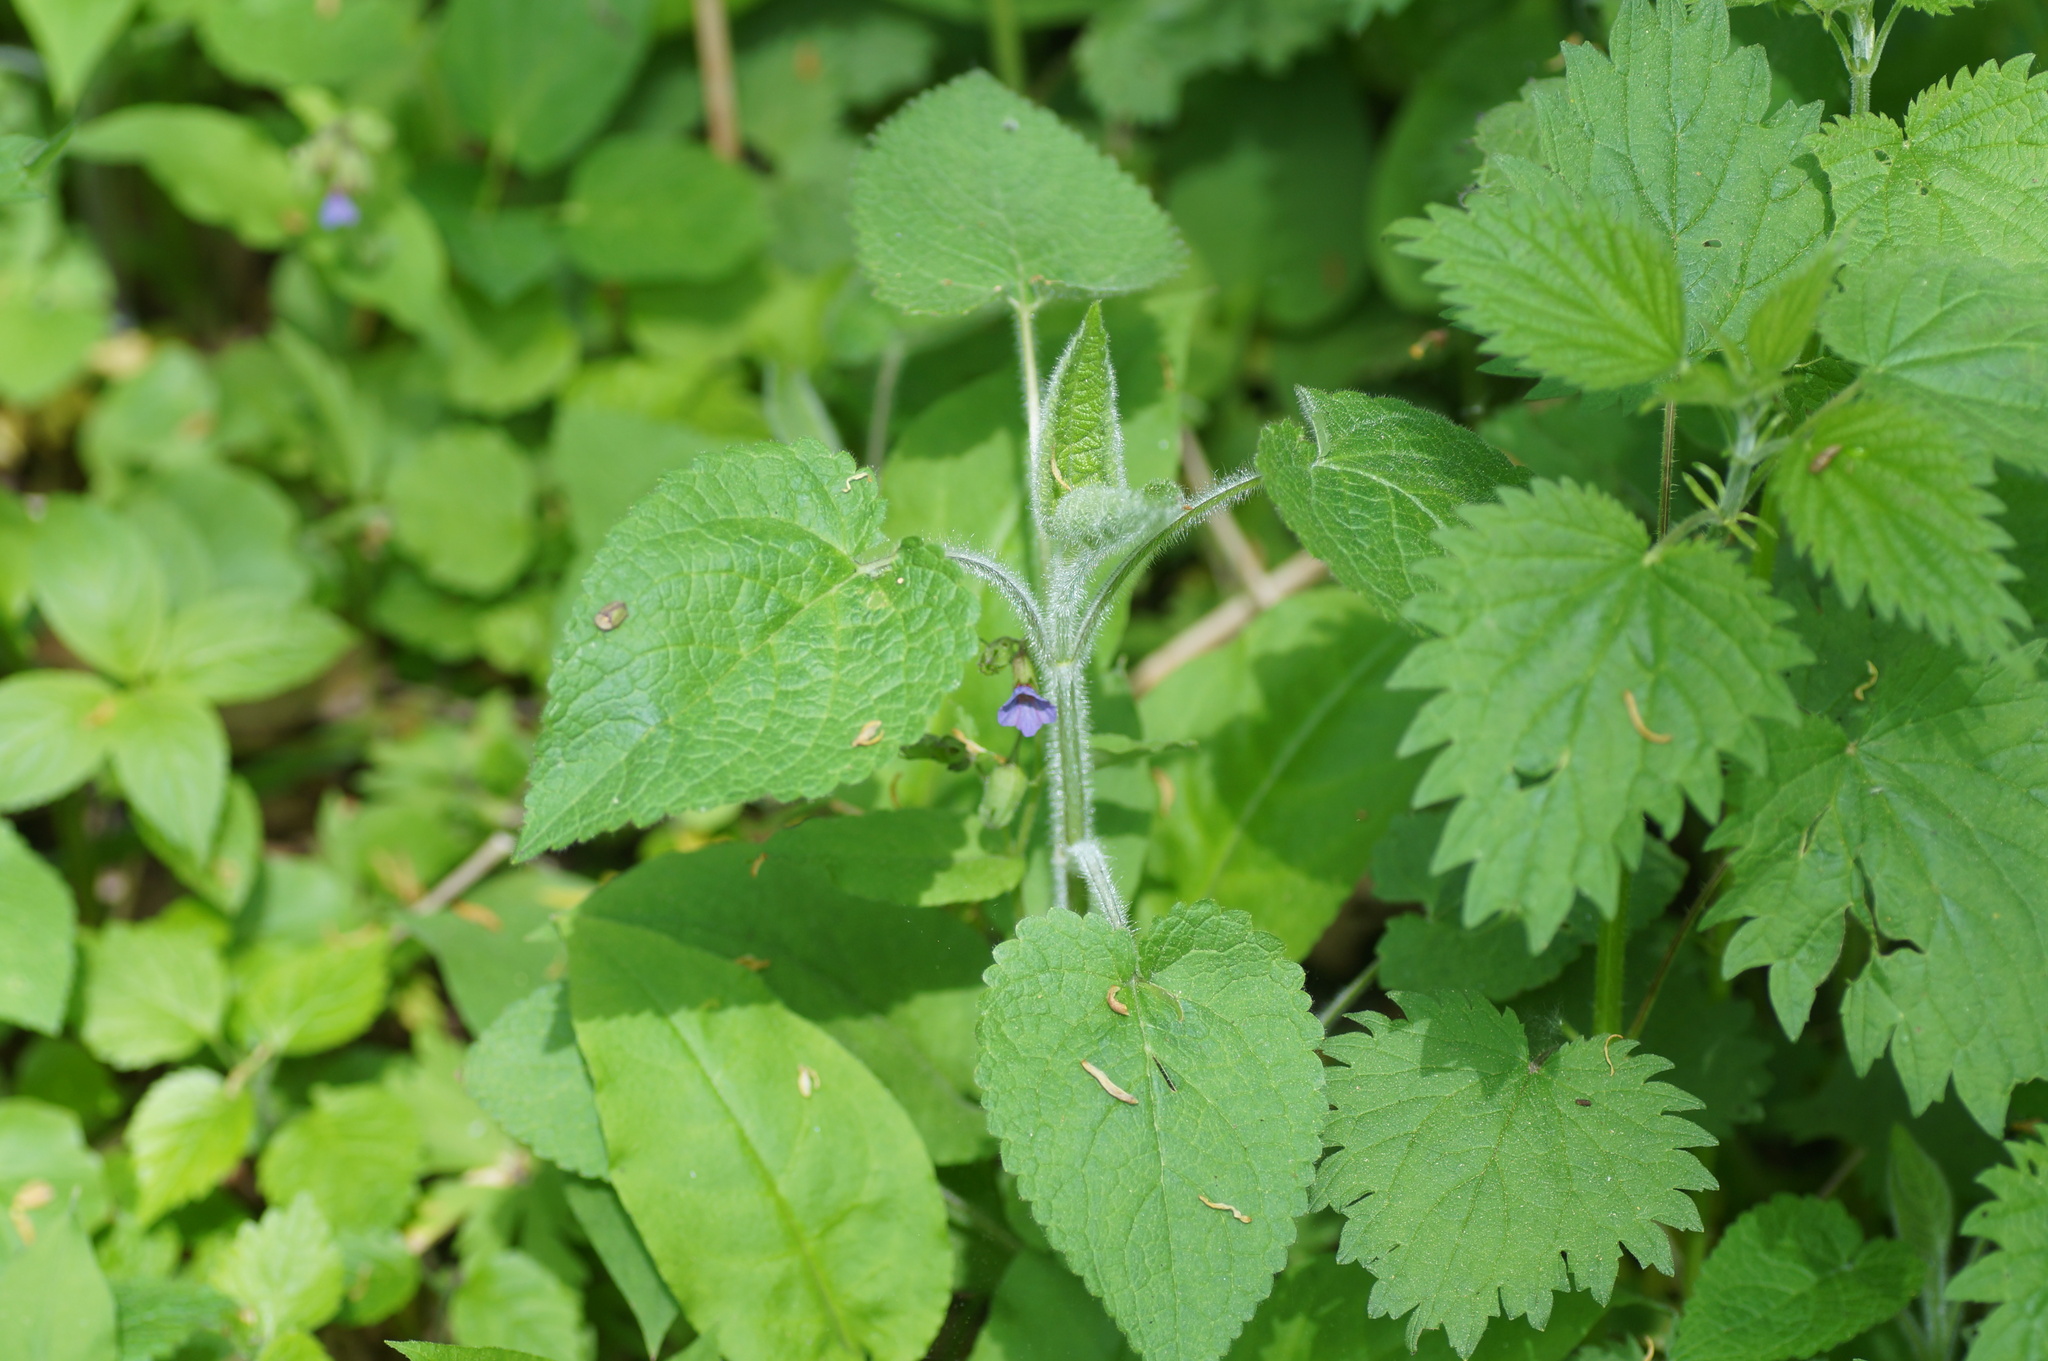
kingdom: Plantae
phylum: Tracheophyta
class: Magnoliopsida
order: Lamiales
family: Lamiaceae
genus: Stachys
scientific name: Stachys sylvatica
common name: Hedge woundwort
